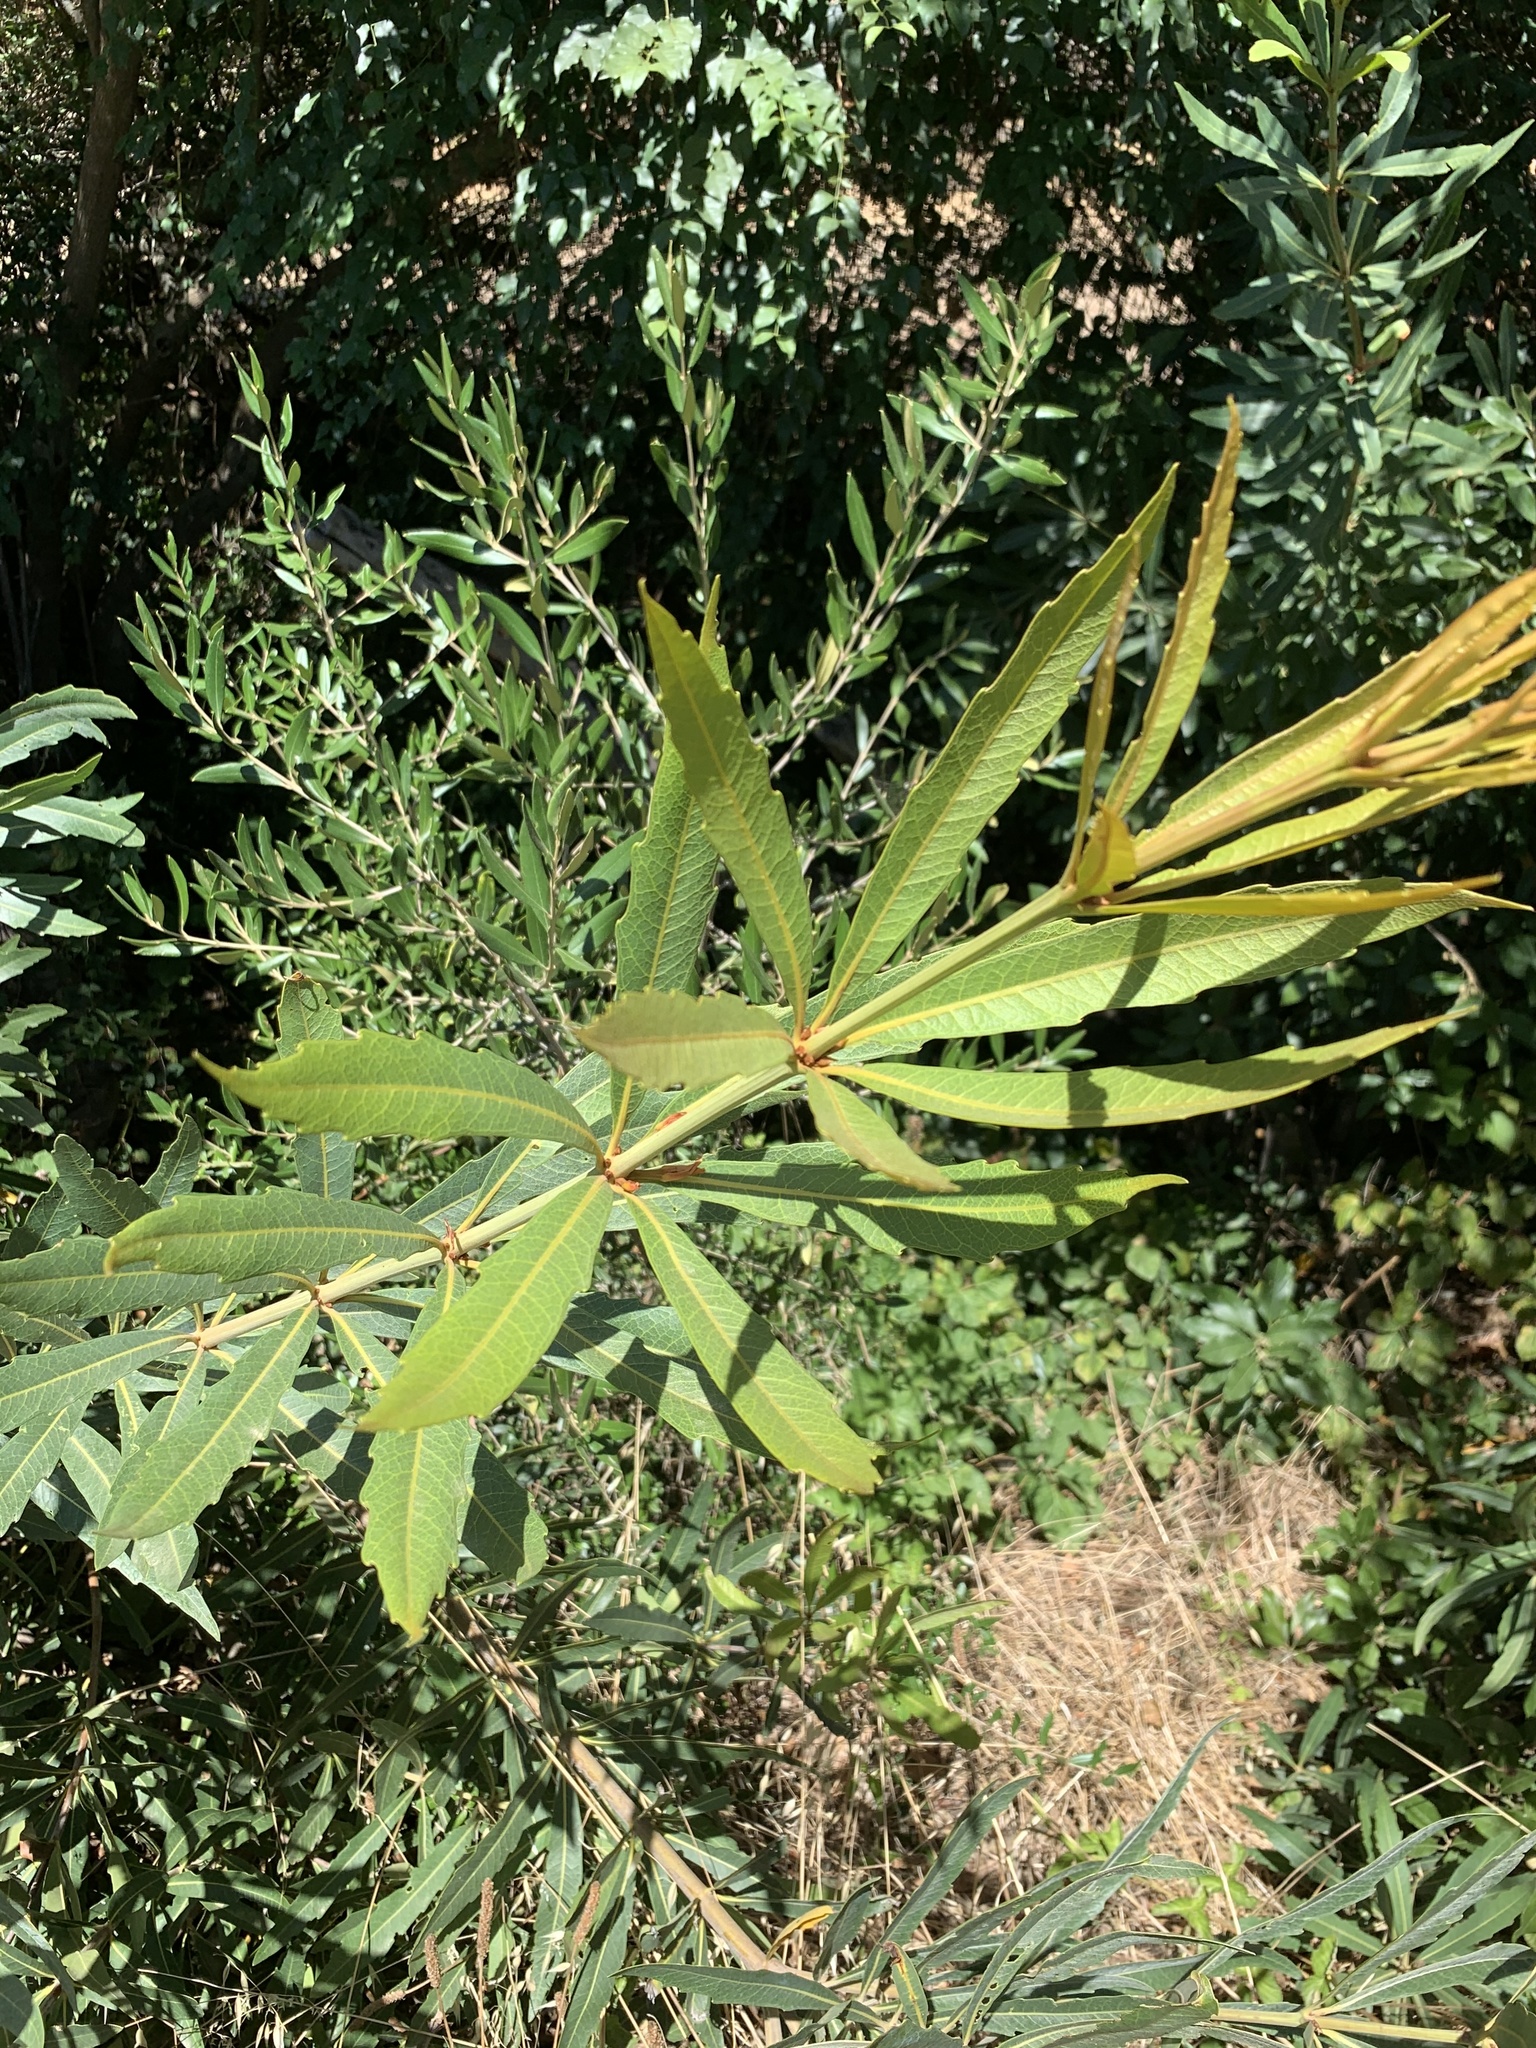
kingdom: Plantae
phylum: Tracheophyta
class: Magnoliopsida
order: Proteales
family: Proteaceae
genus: Brabejum
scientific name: Brabejum stellatifolium
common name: Wild almond
